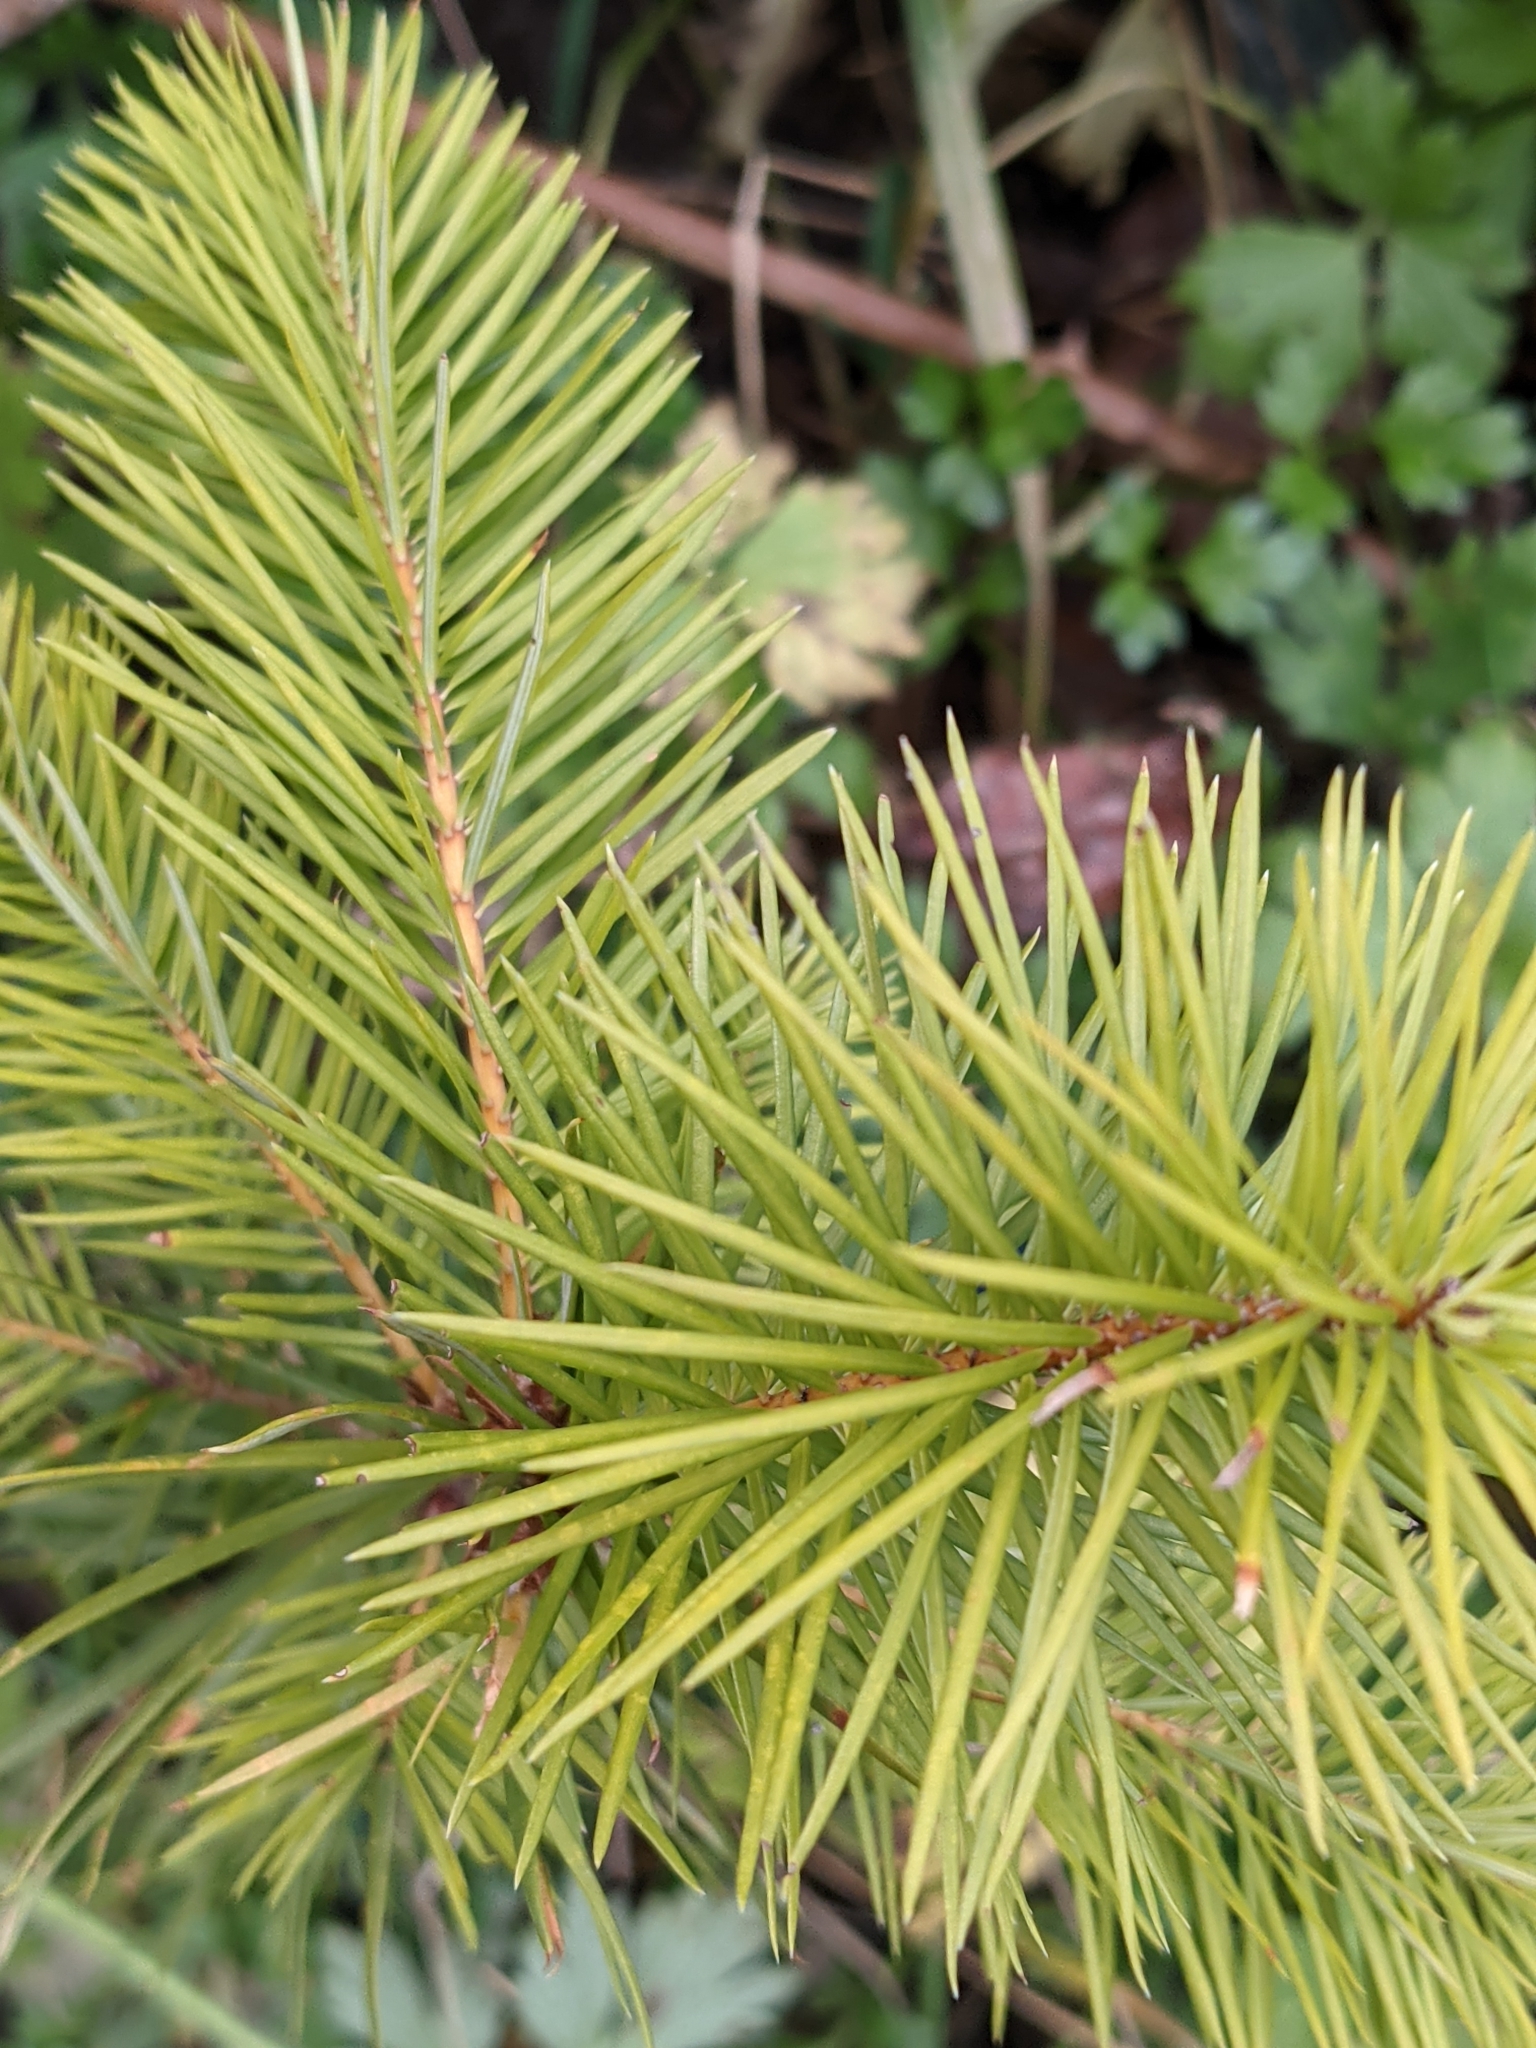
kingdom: Plantae
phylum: Tracheophyta
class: Pinopsida
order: Pinales
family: Pinaceae
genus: Pseudotsuga
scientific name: Pseudotsuga menziesii
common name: Douglas fir
